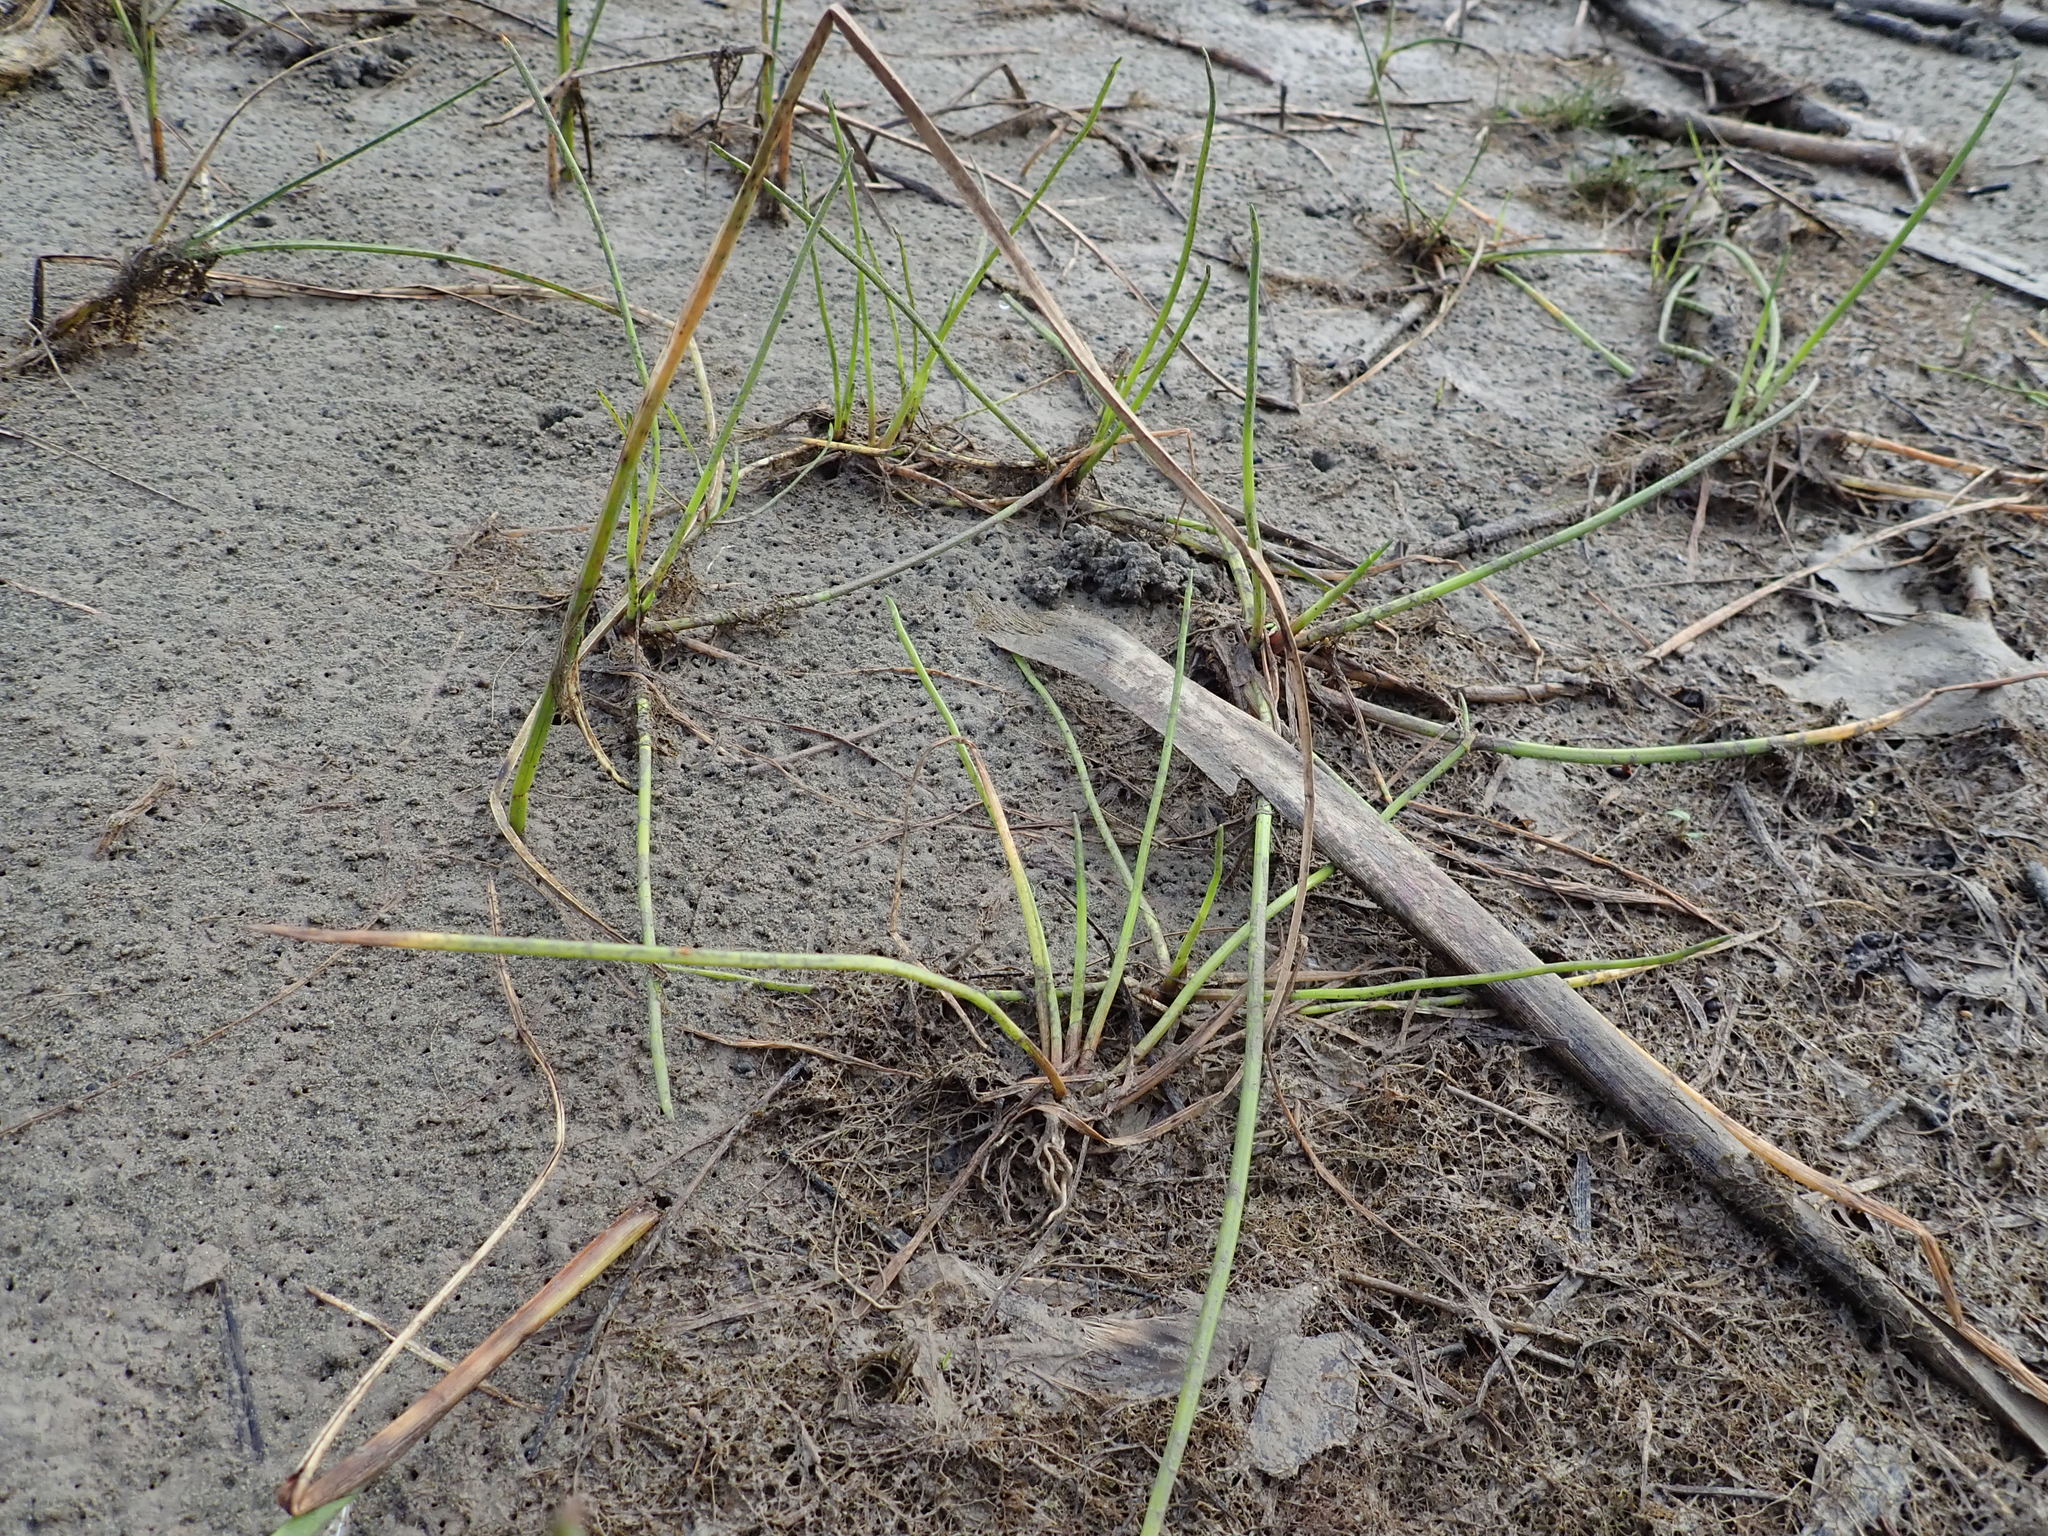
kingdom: Plantae
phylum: Tracheophyta
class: Liliopsida
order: Poales
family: Cyperaceae
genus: Isolepis
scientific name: Isolepis prolifera
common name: Proliferating bulrush
